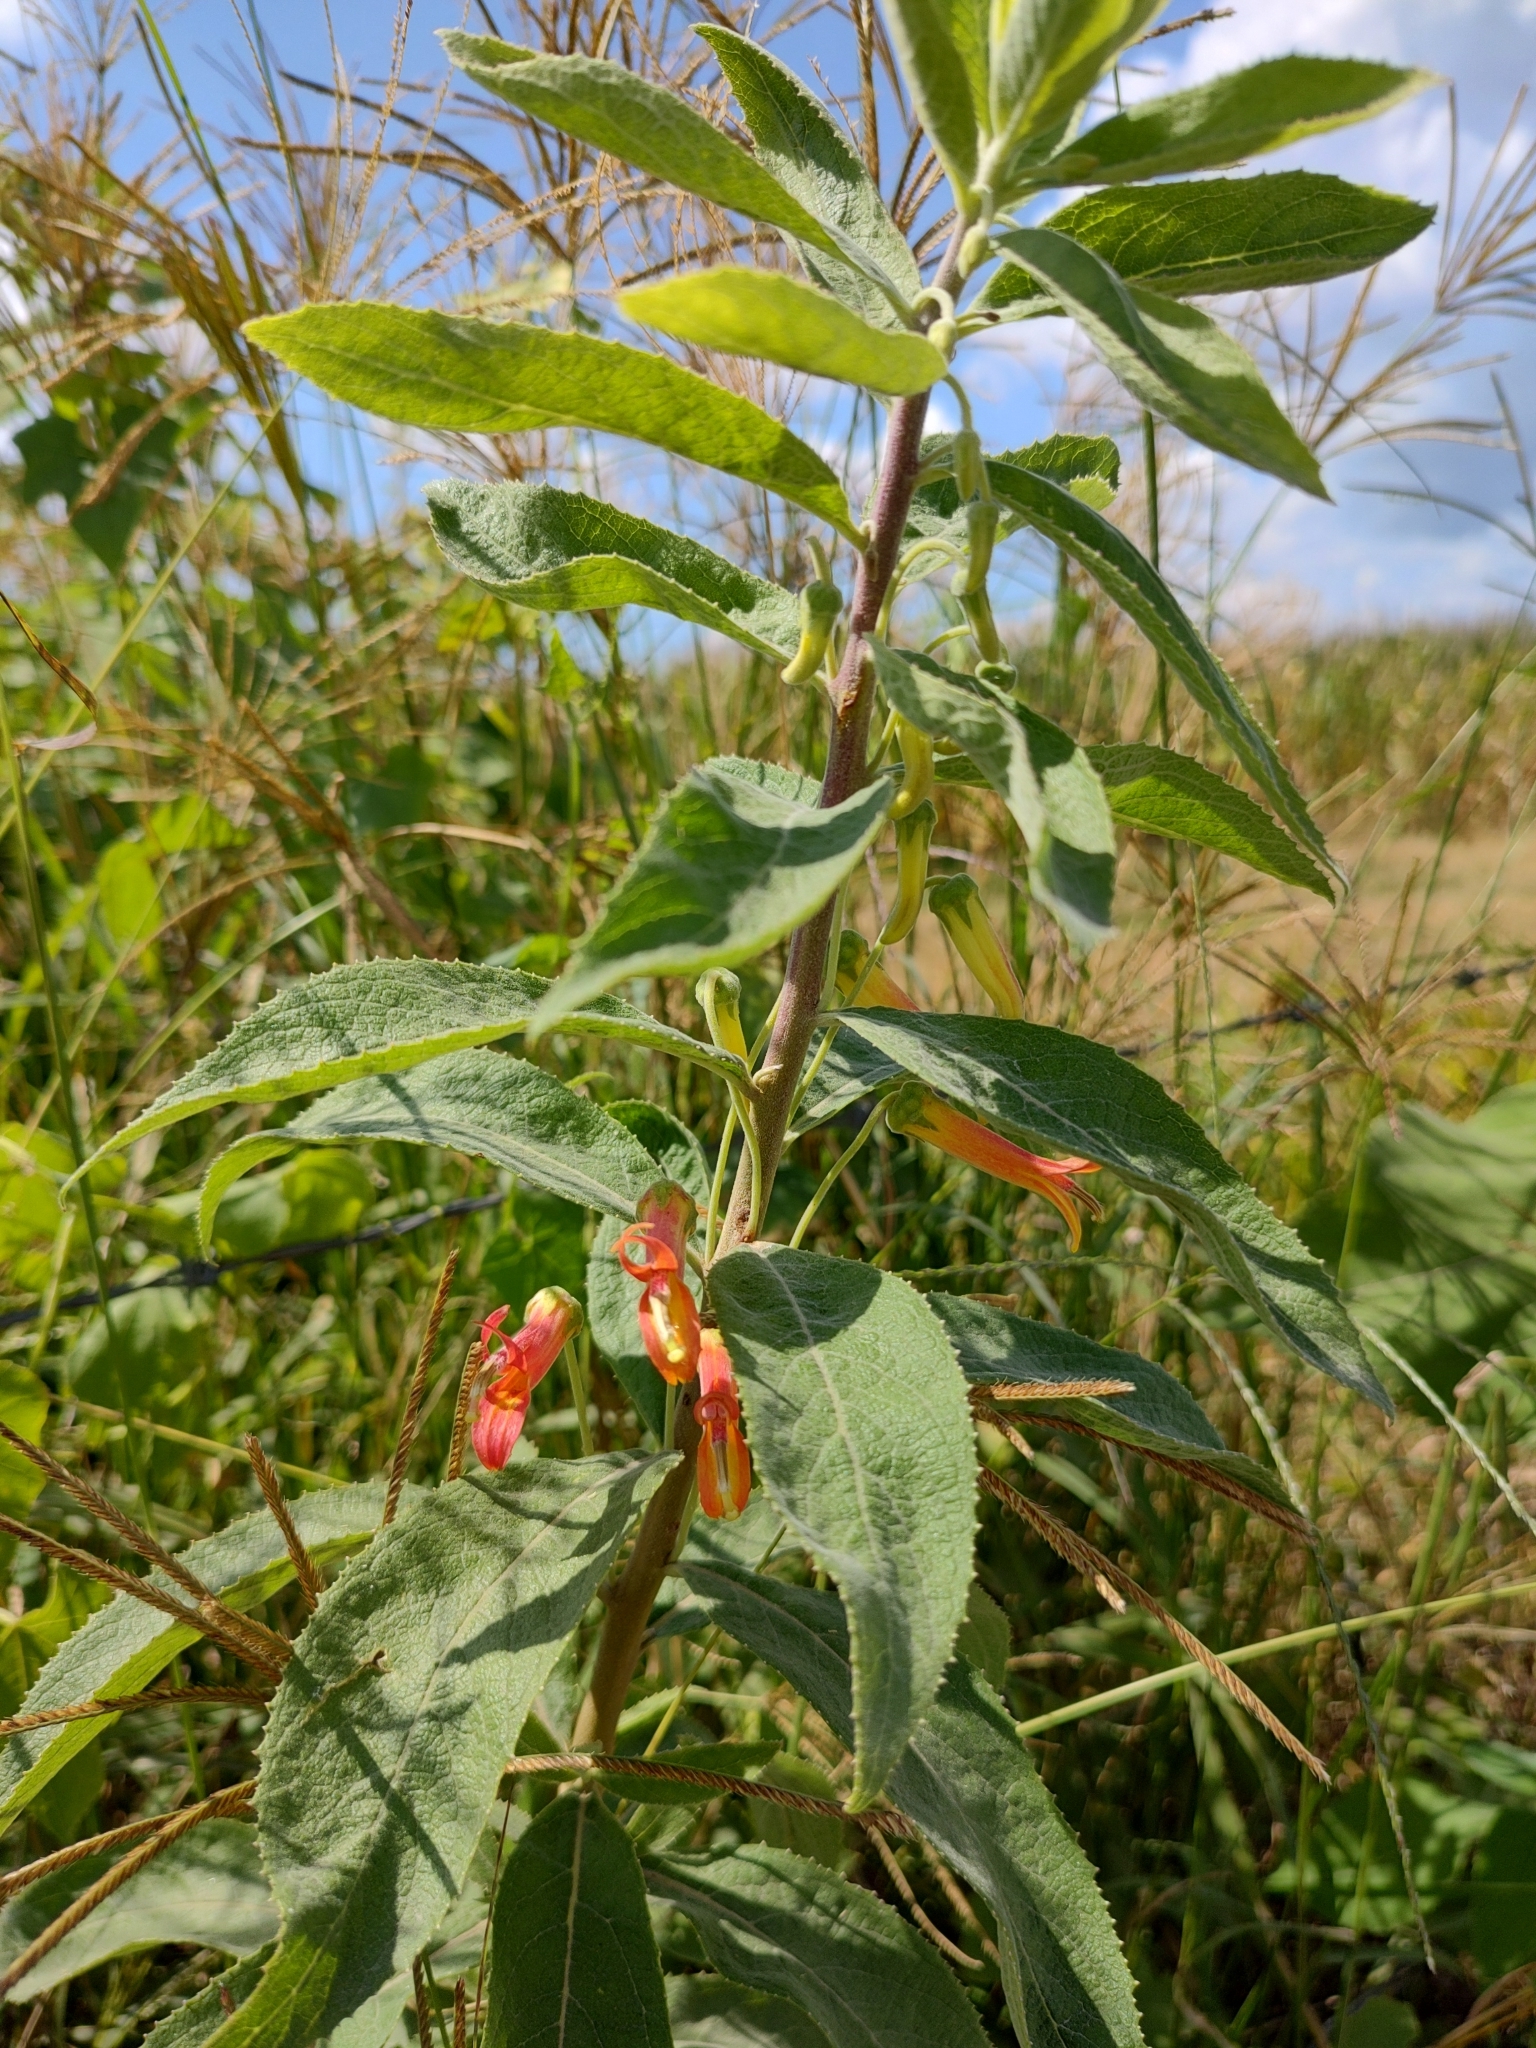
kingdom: Plantae
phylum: Tracheophyta
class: Magnoliopsida
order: Asterales
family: Campanulaceae
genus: Lobelia
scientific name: Lobelia laxiflora
